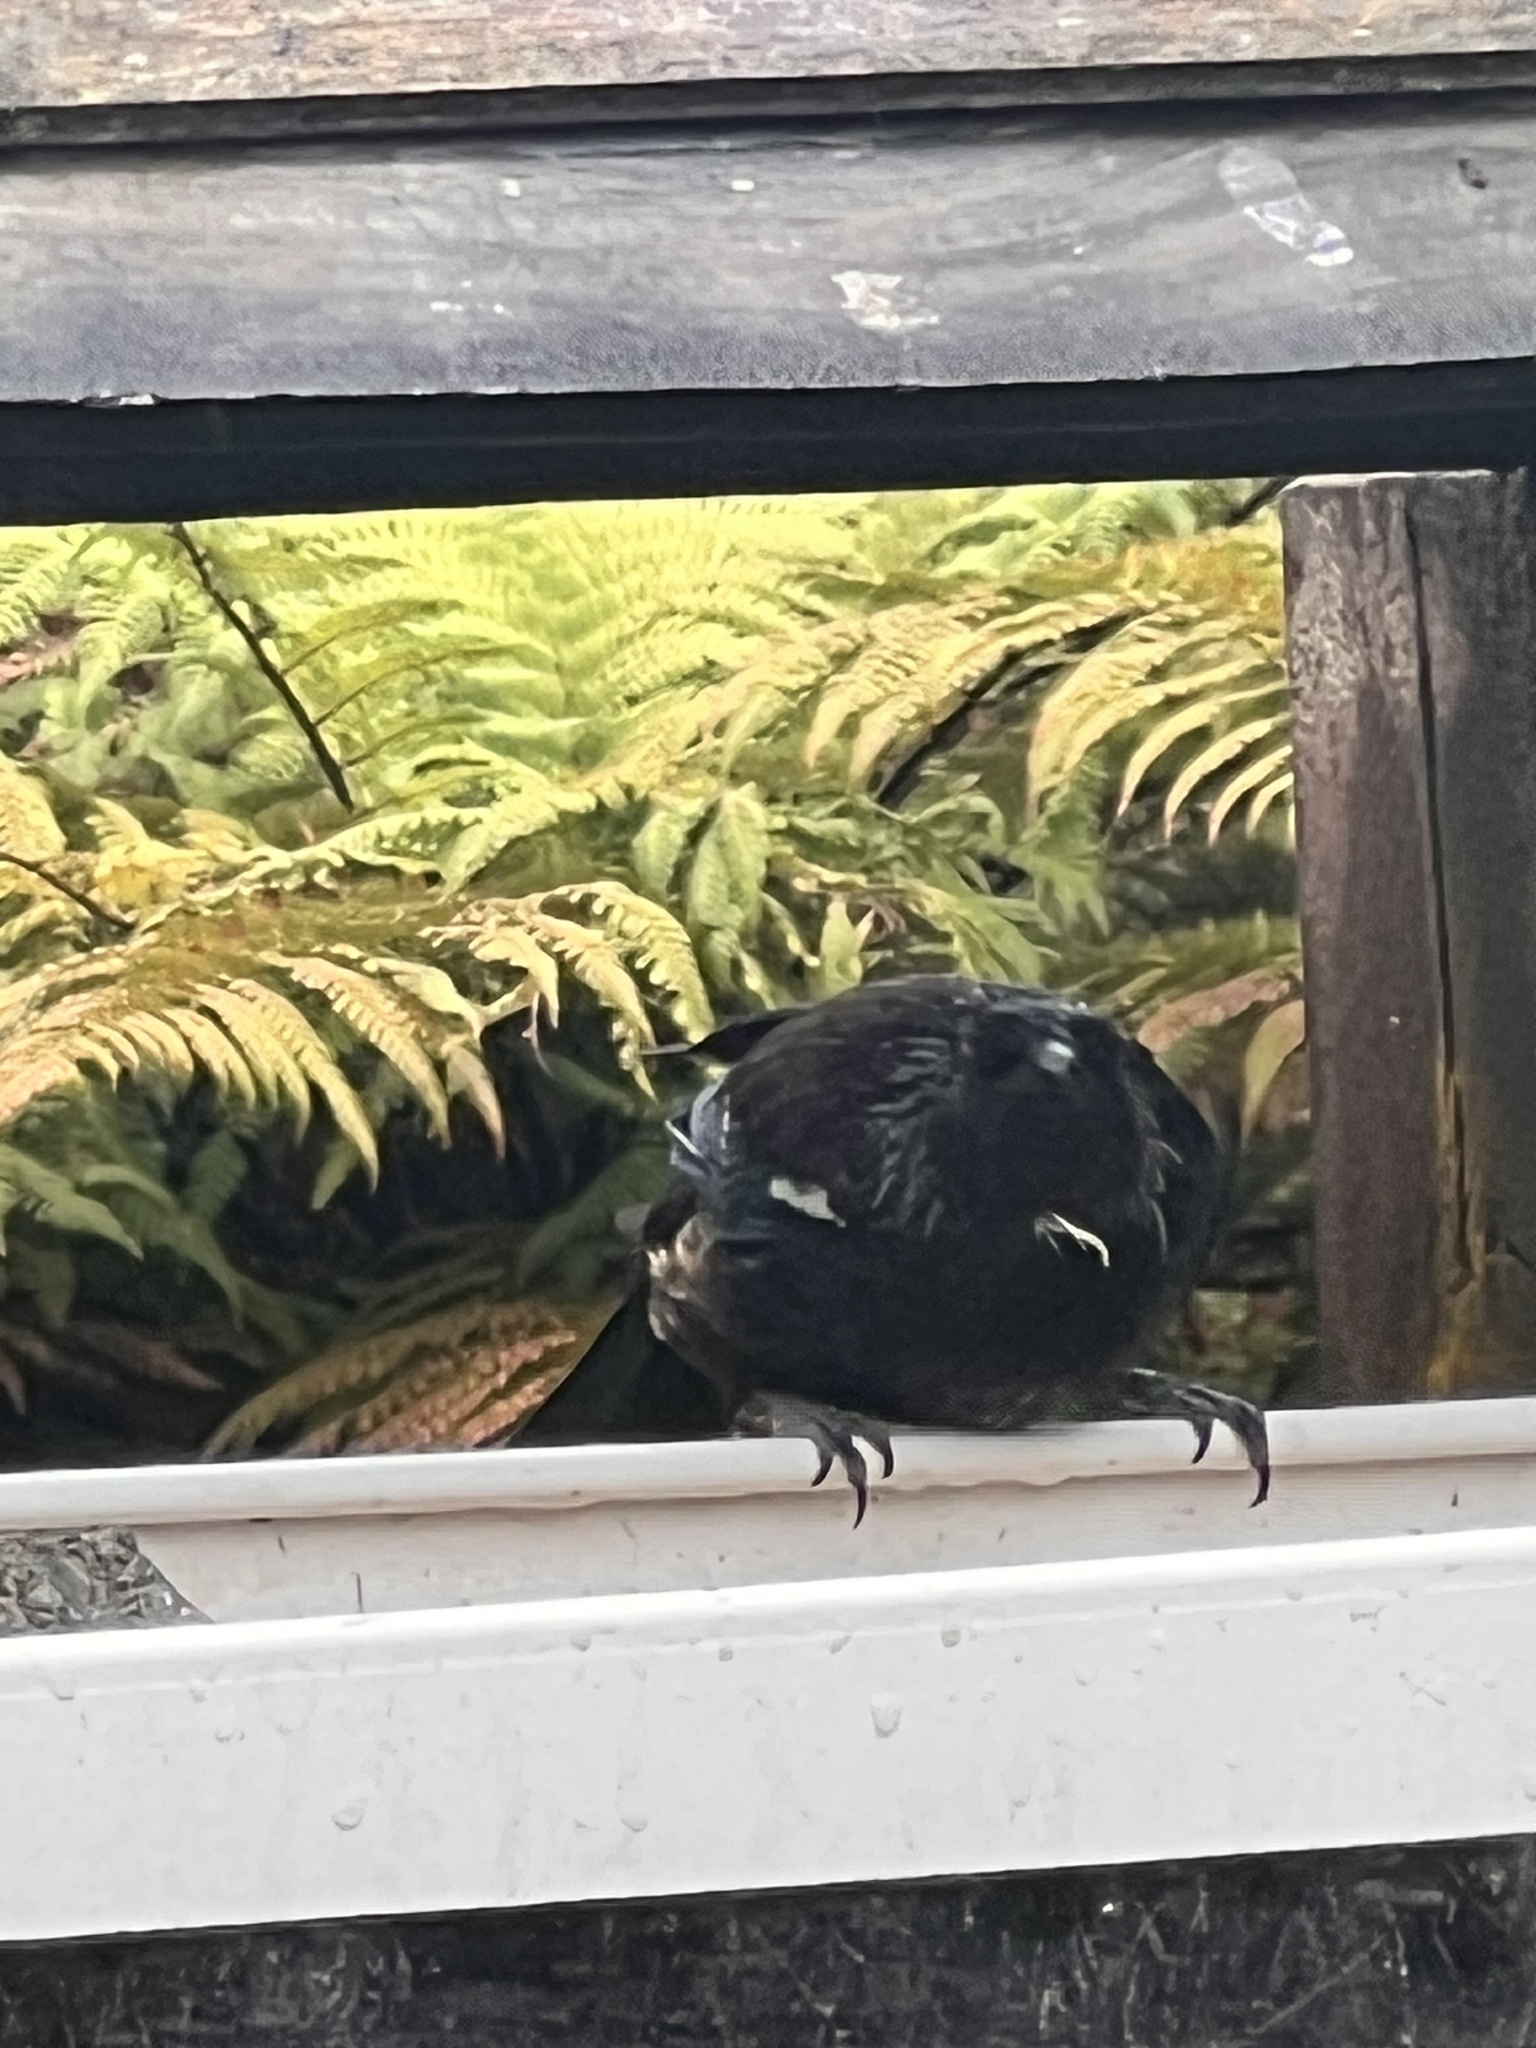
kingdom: Animalia
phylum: Chordata
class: Aves
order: Passeriformes
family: Meliphagidae
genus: Prosthemadera
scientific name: Prosthemadera novaeseelandiae
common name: Tui
